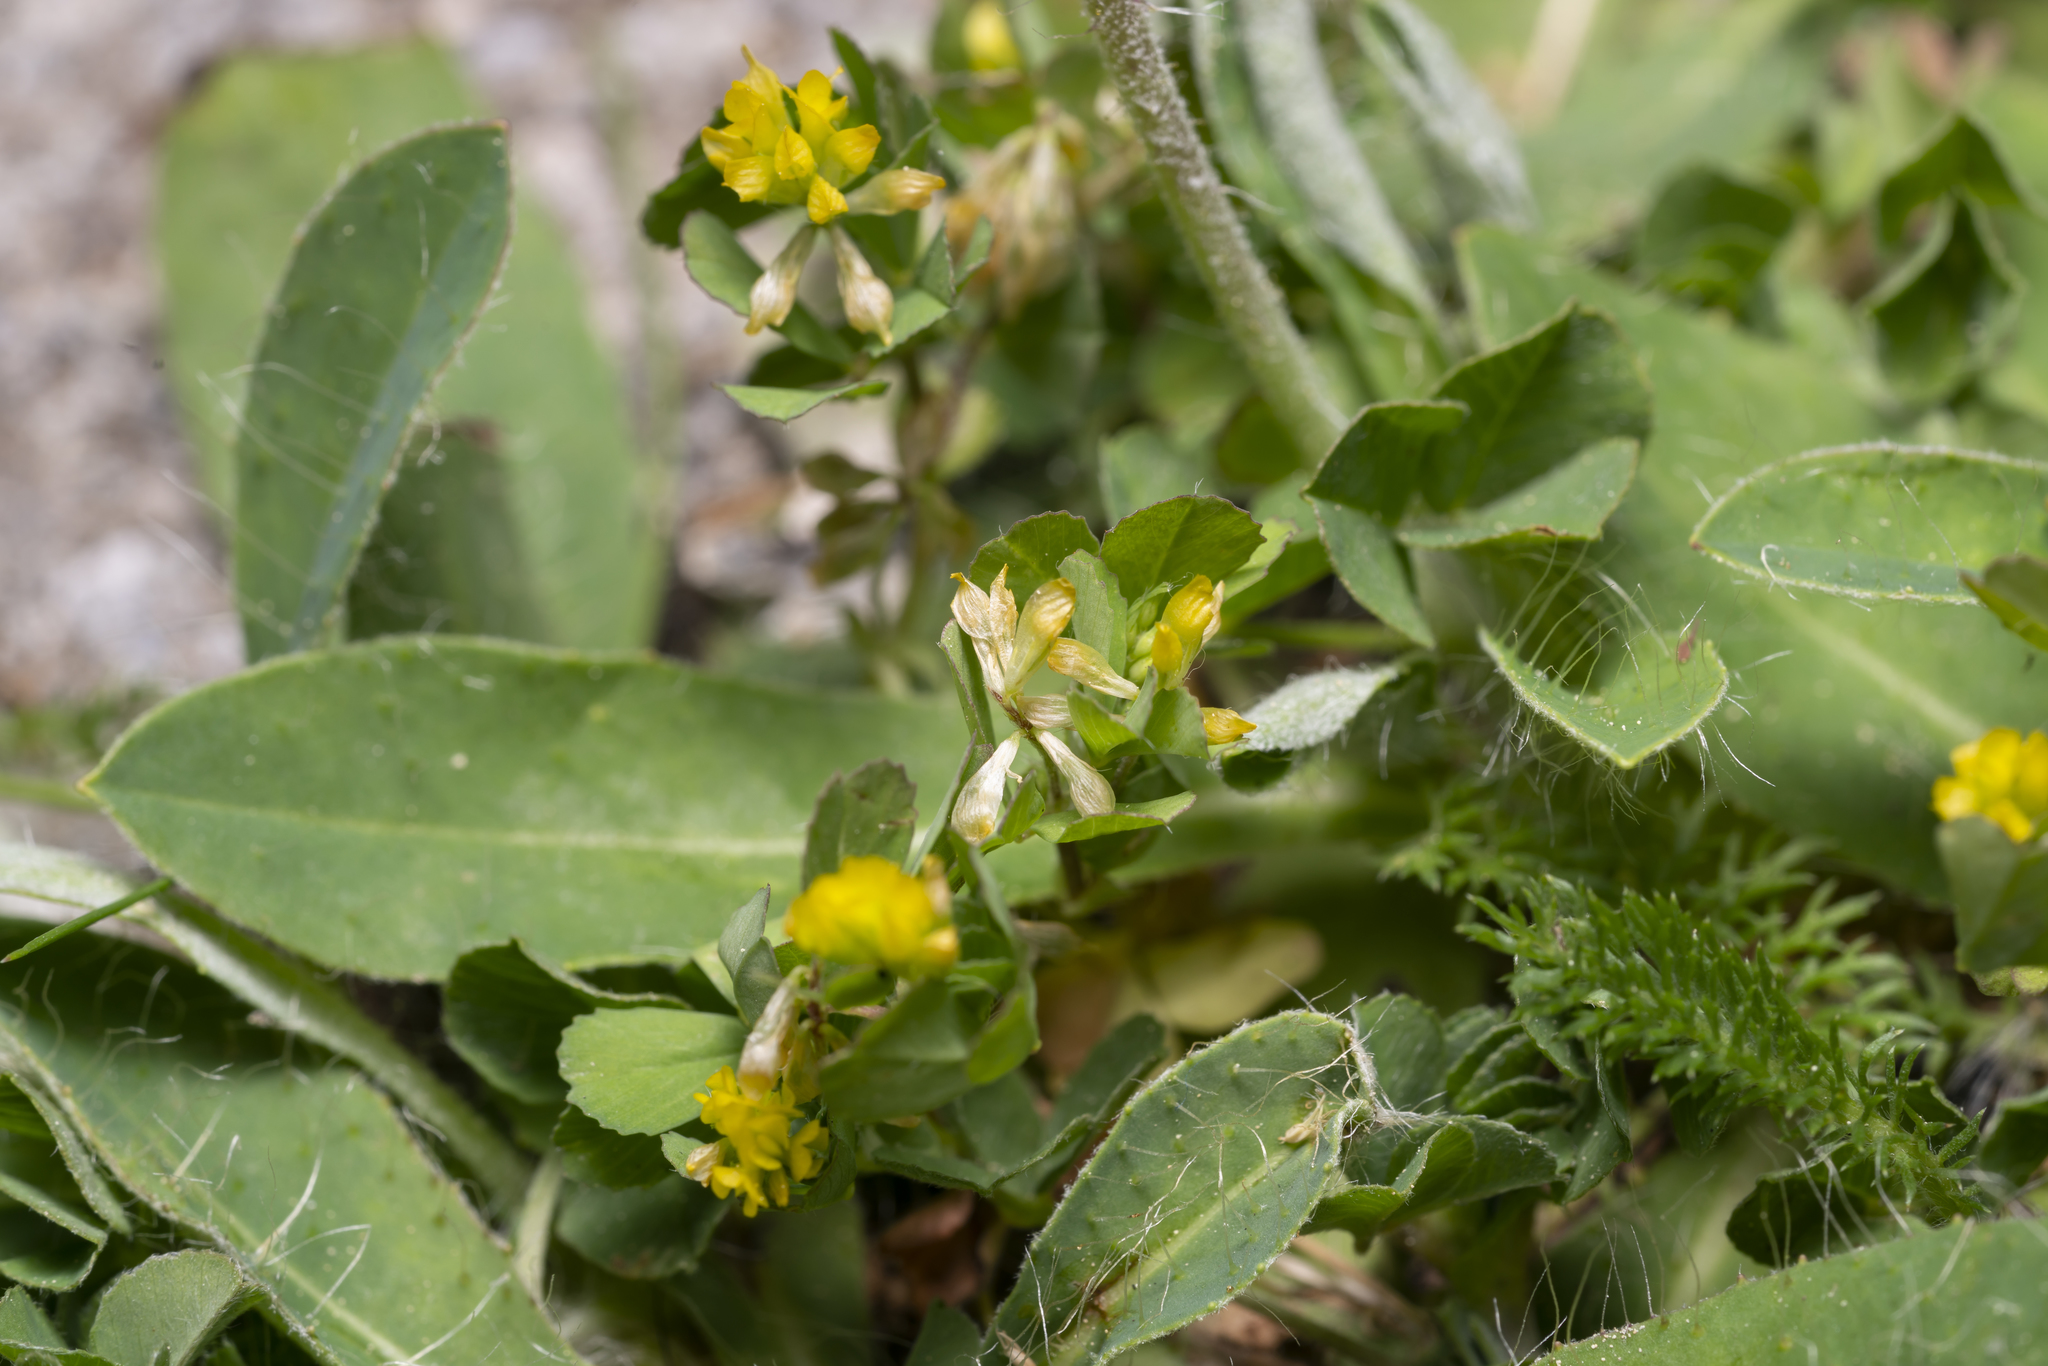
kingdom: Plantae
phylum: Tracheophyta
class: Magnoliopsida
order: Fabales
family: Fabaceae
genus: Trifolium
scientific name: Trifolium dubium
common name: Suckling clover
